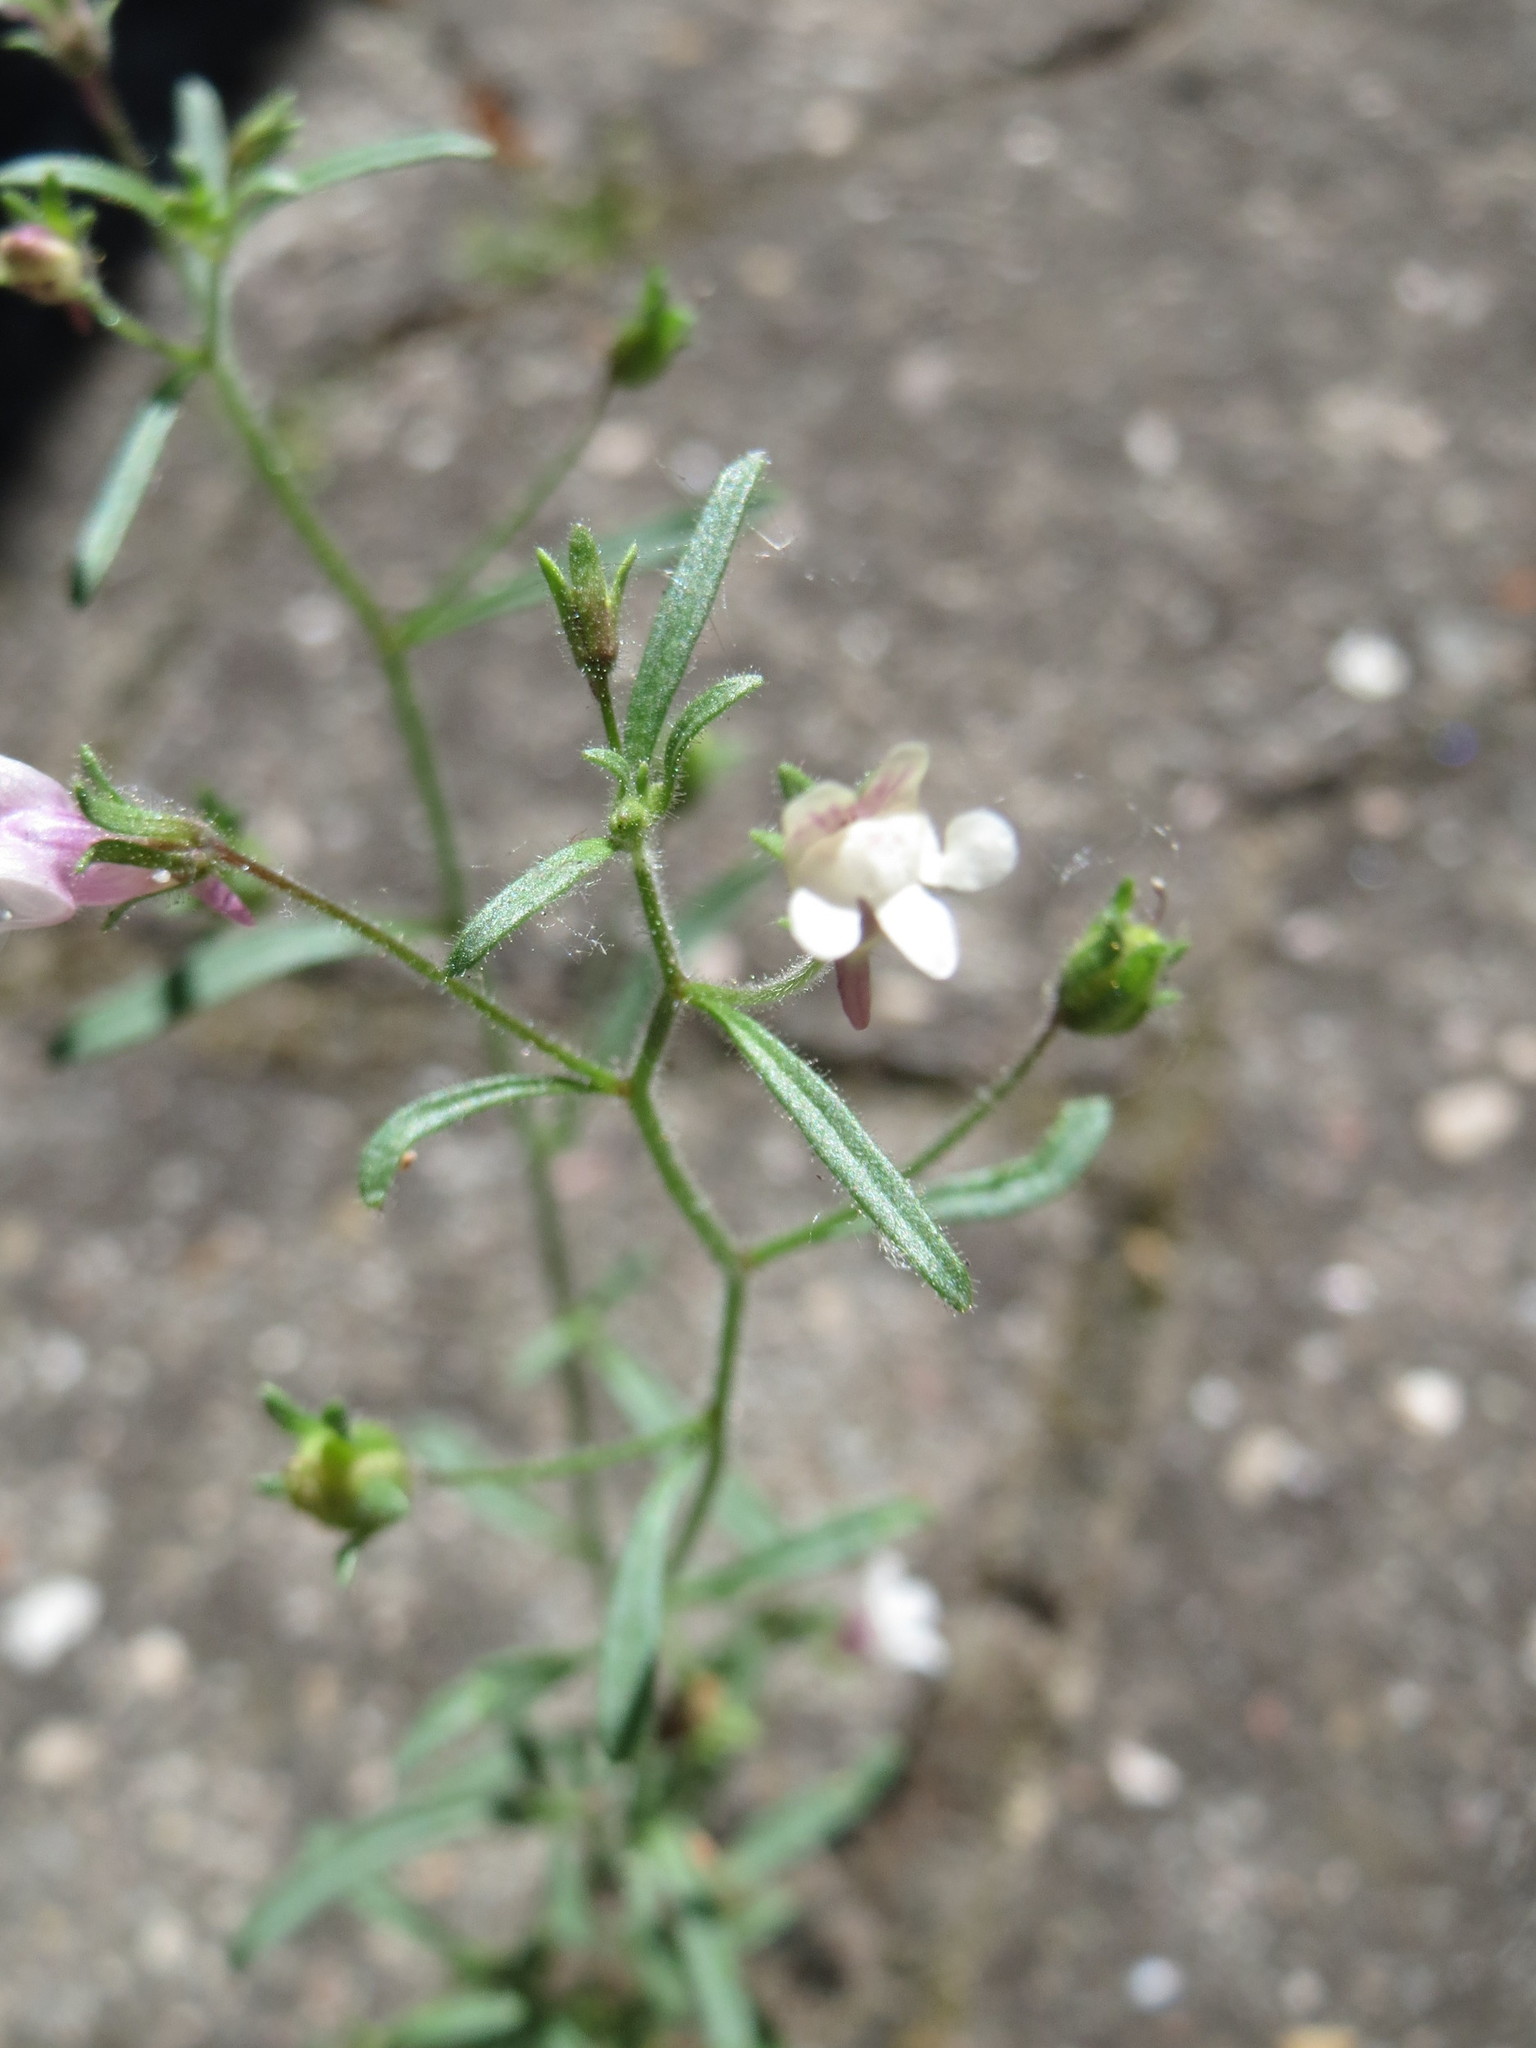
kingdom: Plantae
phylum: Tracheophyta
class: Magnoliopsida
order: Lamiales
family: Plantaginaceae
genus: Chaenorhinum
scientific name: Chaenorhinum minus
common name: Dwarf snapdragon
